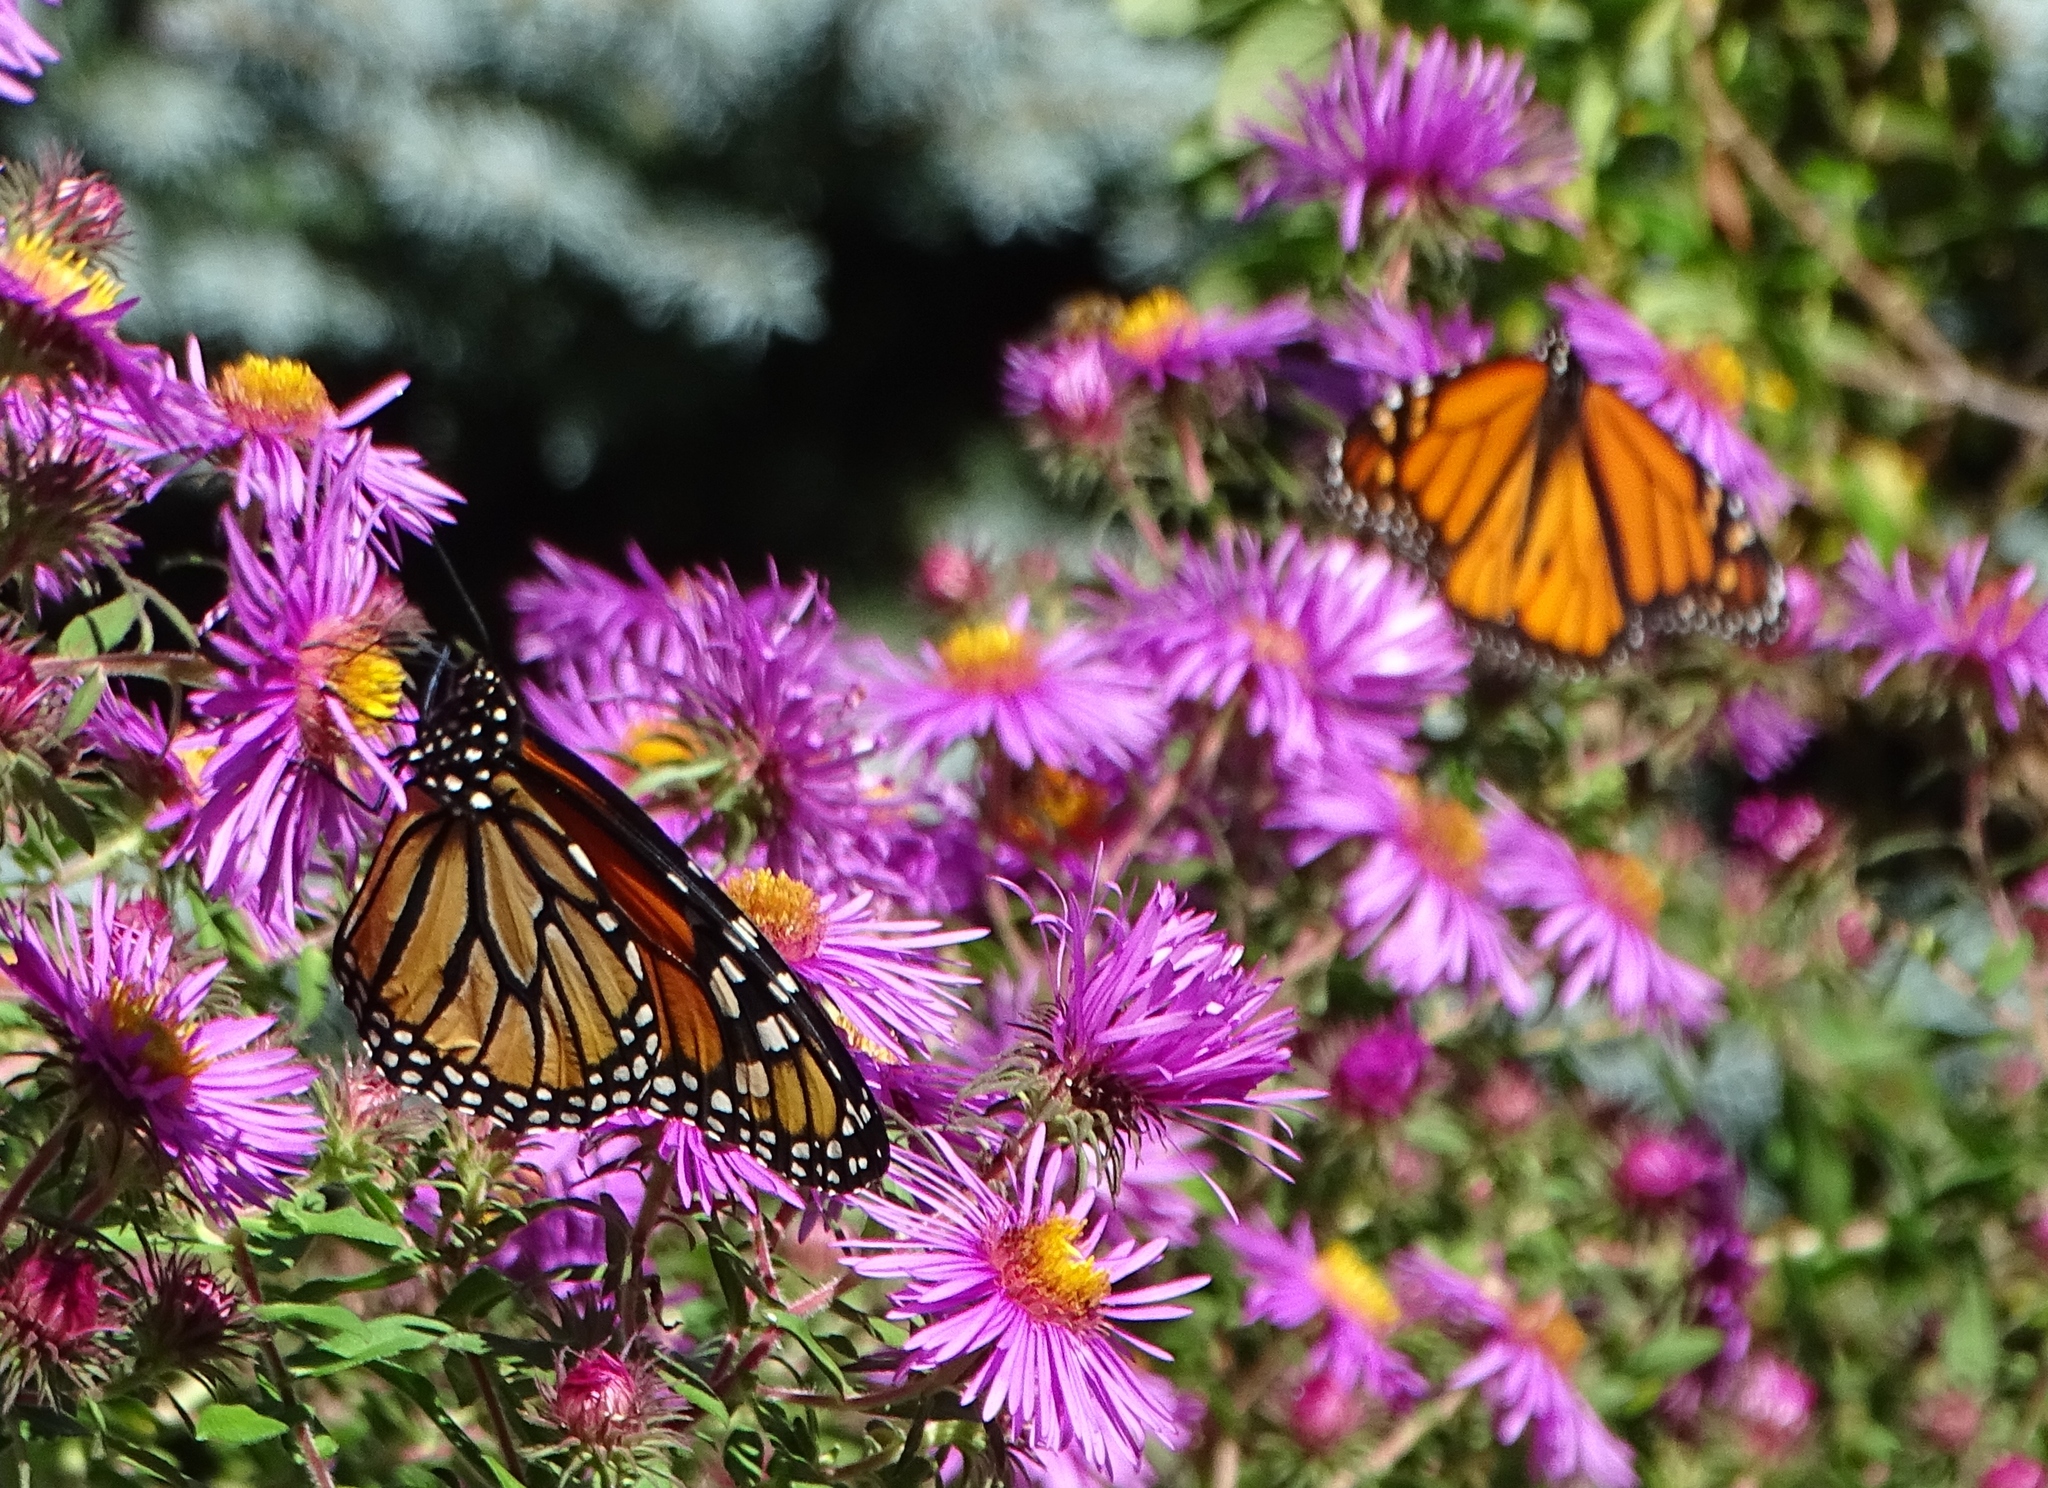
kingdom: Animalia
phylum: Arthropoda
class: Insecta
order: Lepidoptera
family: Nymphalidae
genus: Danaus
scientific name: Danaus plexippus
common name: Monarch
